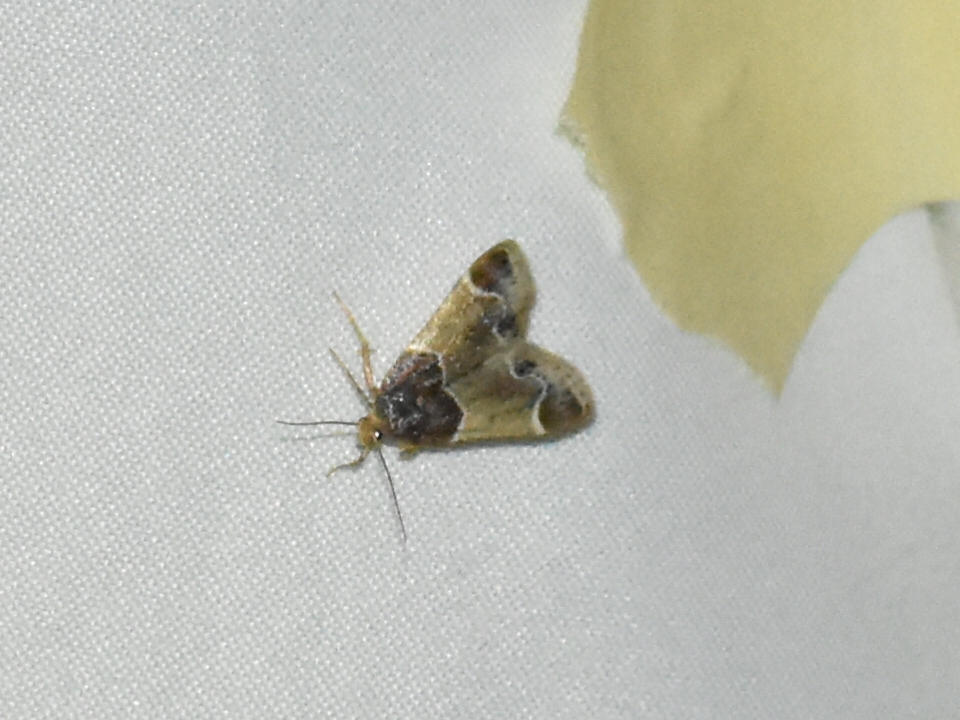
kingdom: Animalia
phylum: Arthropoda
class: Insecta
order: Lepidoptera
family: Pyralidae
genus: Pyralis
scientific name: Pyralis farinalis
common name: Meal moth
